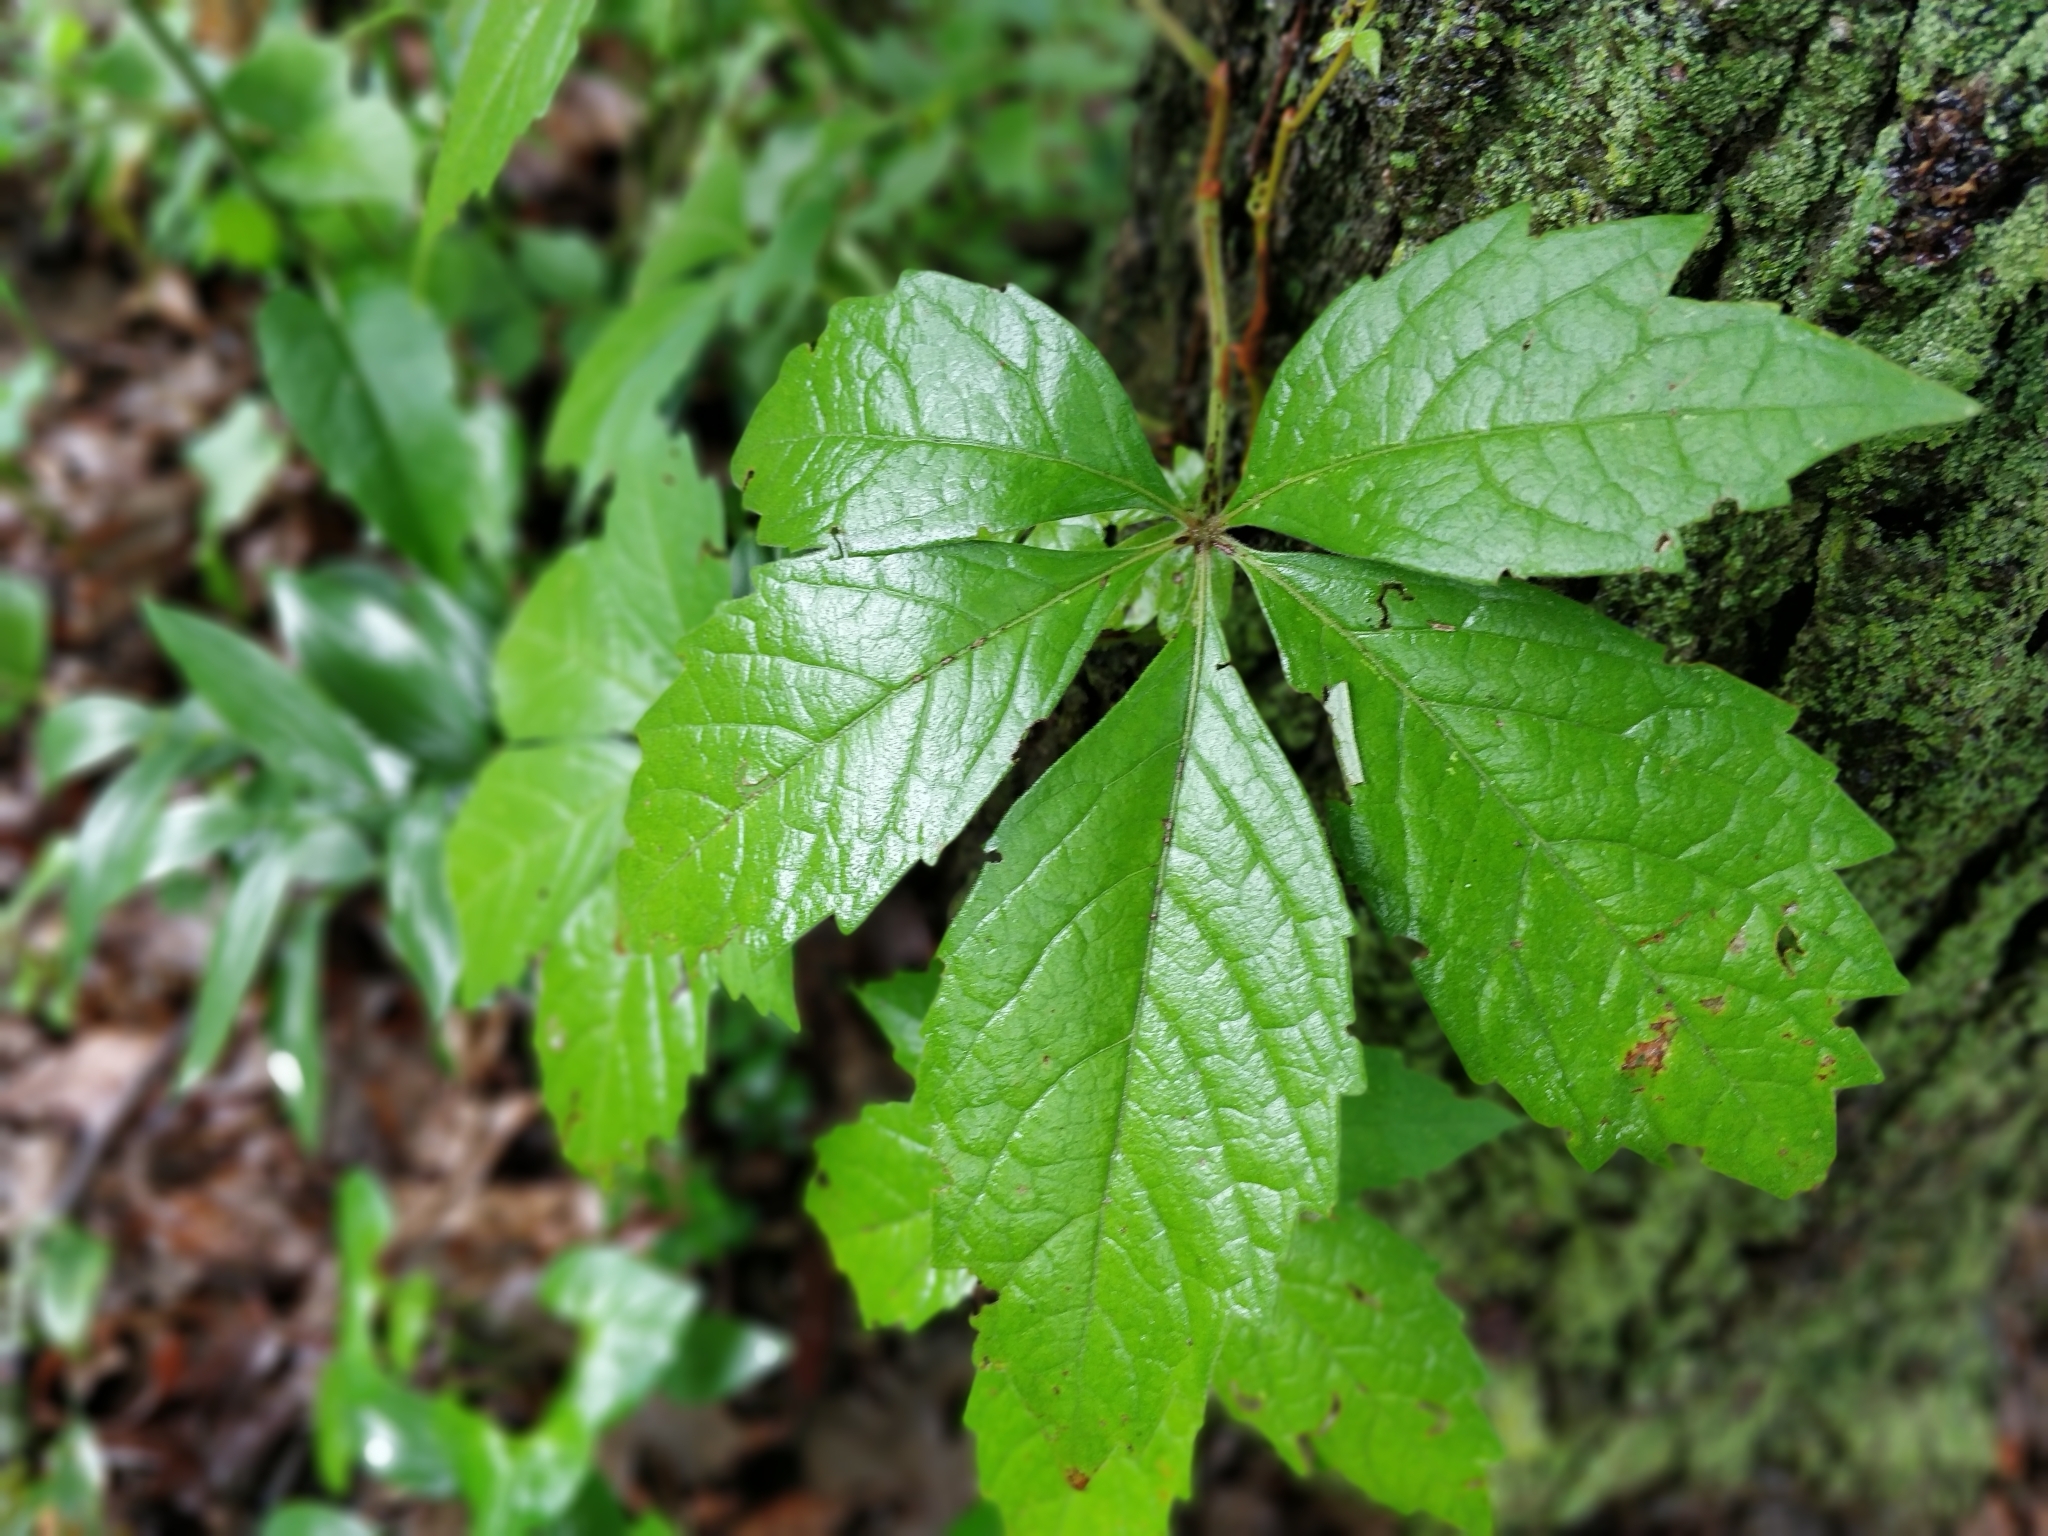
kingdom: Plantae
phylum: Tracheophyta
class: Magnoliopsida
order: Vitales
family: Vitaceae
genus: Parthenocissus
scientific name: Parthenocissus quinquefolia
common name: Virginia-creeper
